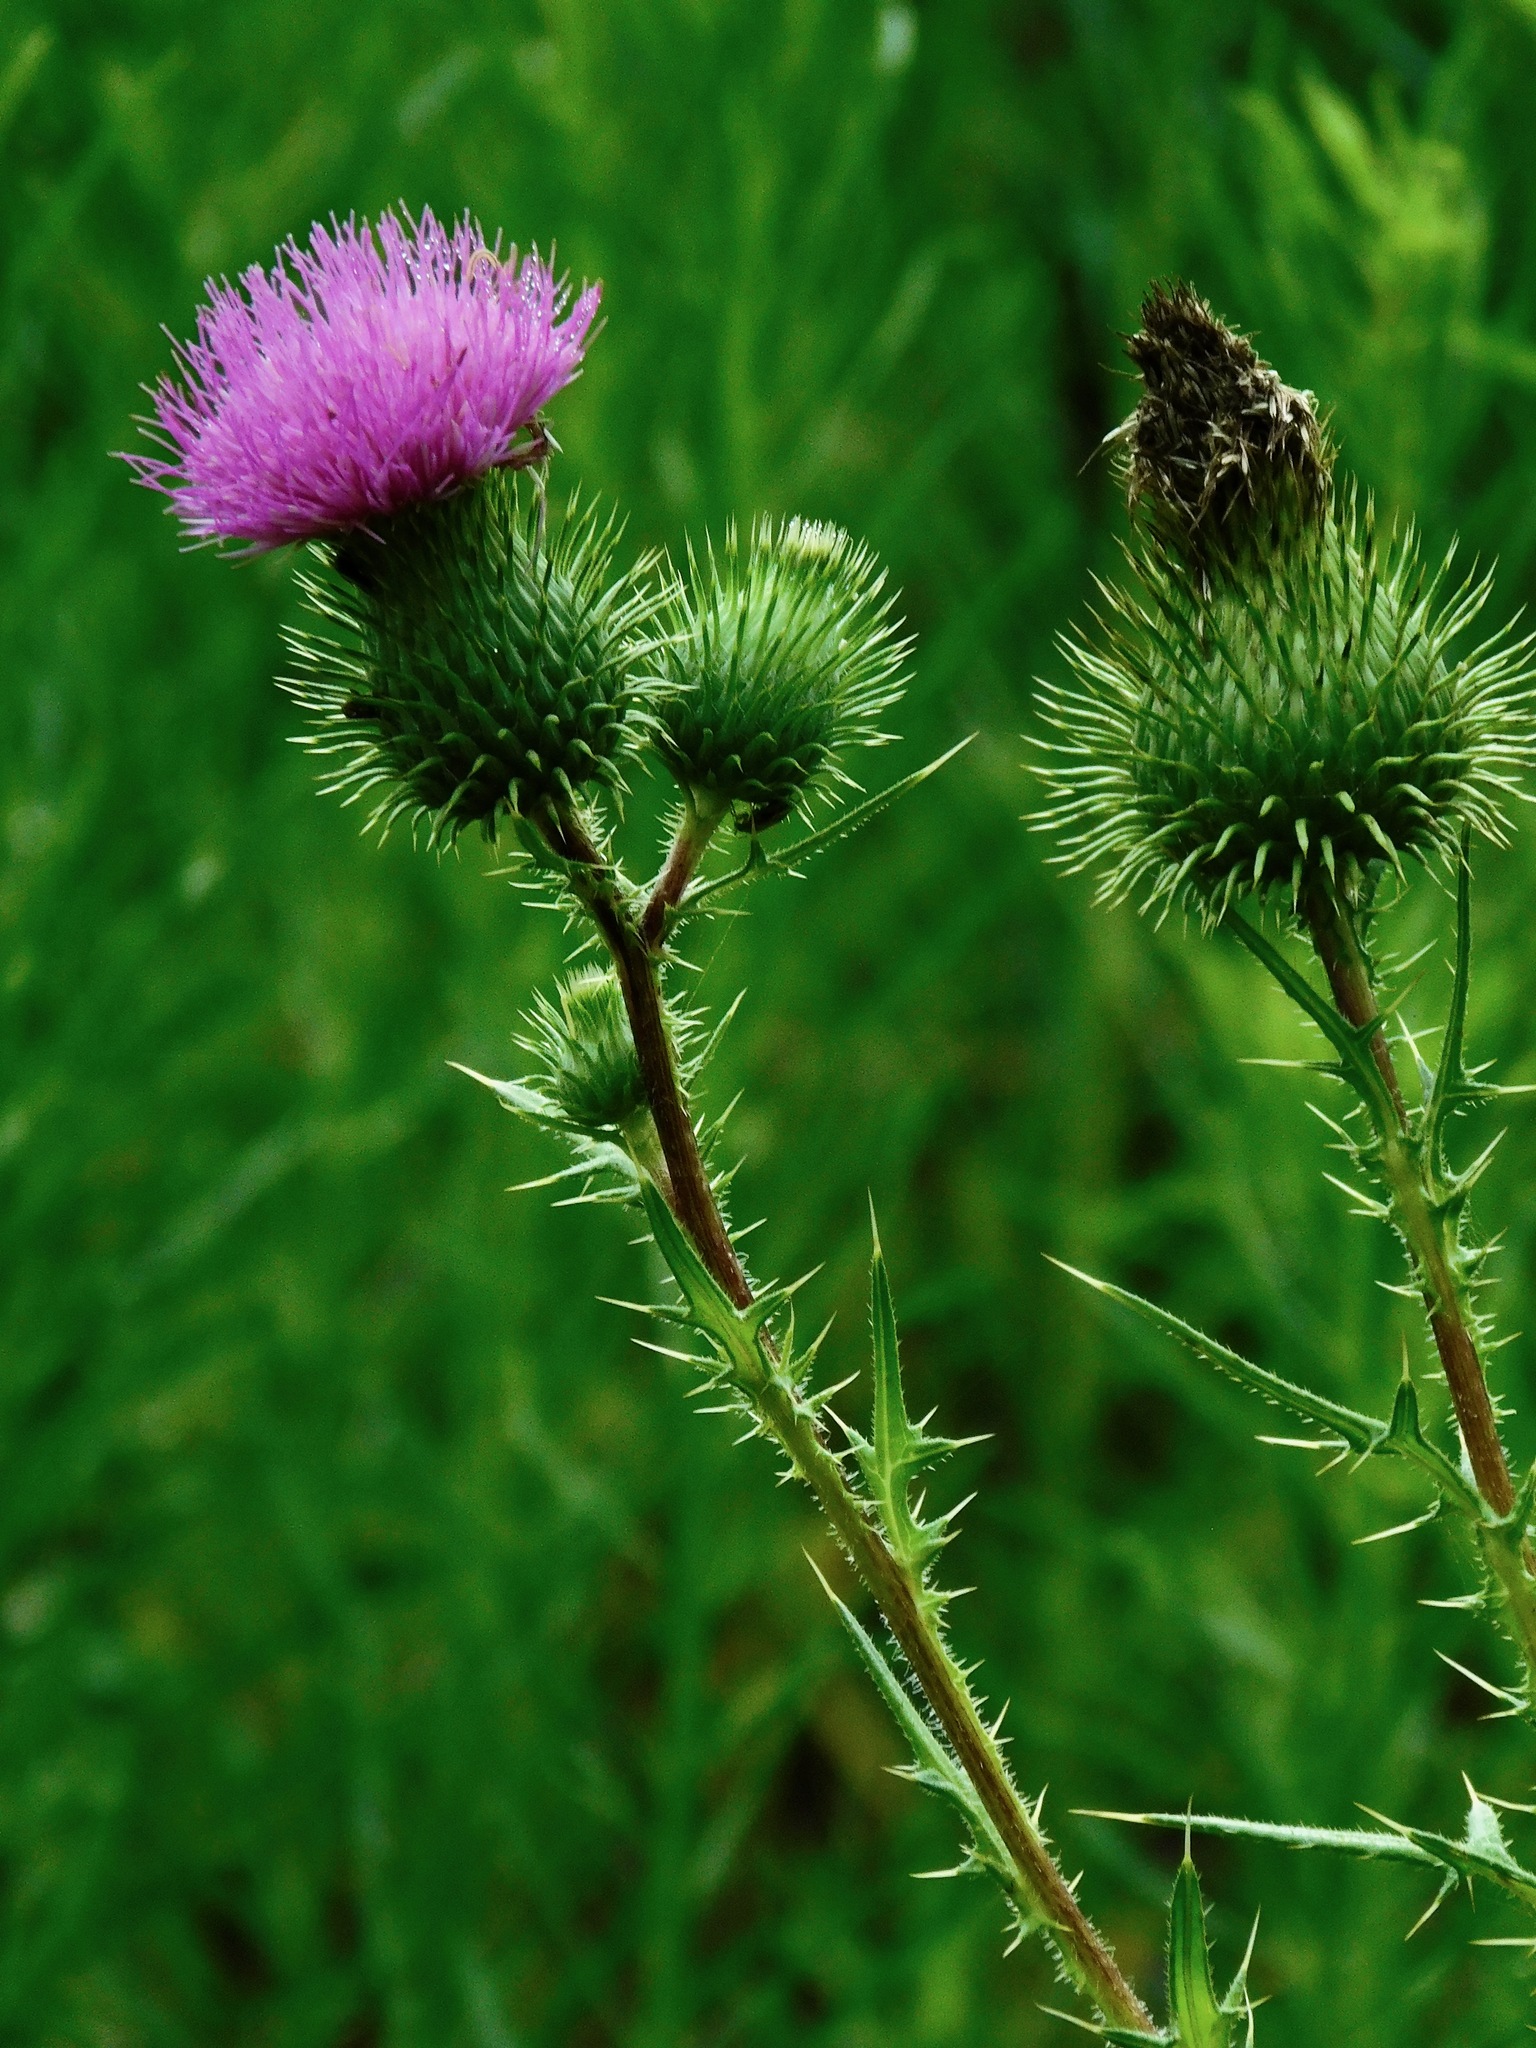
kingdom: Plantae
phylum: Tracheophyta
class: Magnoliopsida
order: Asterales
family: Asteraceae
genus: Cirsium
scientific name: Cirsium vulgare
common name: Bull thistle
